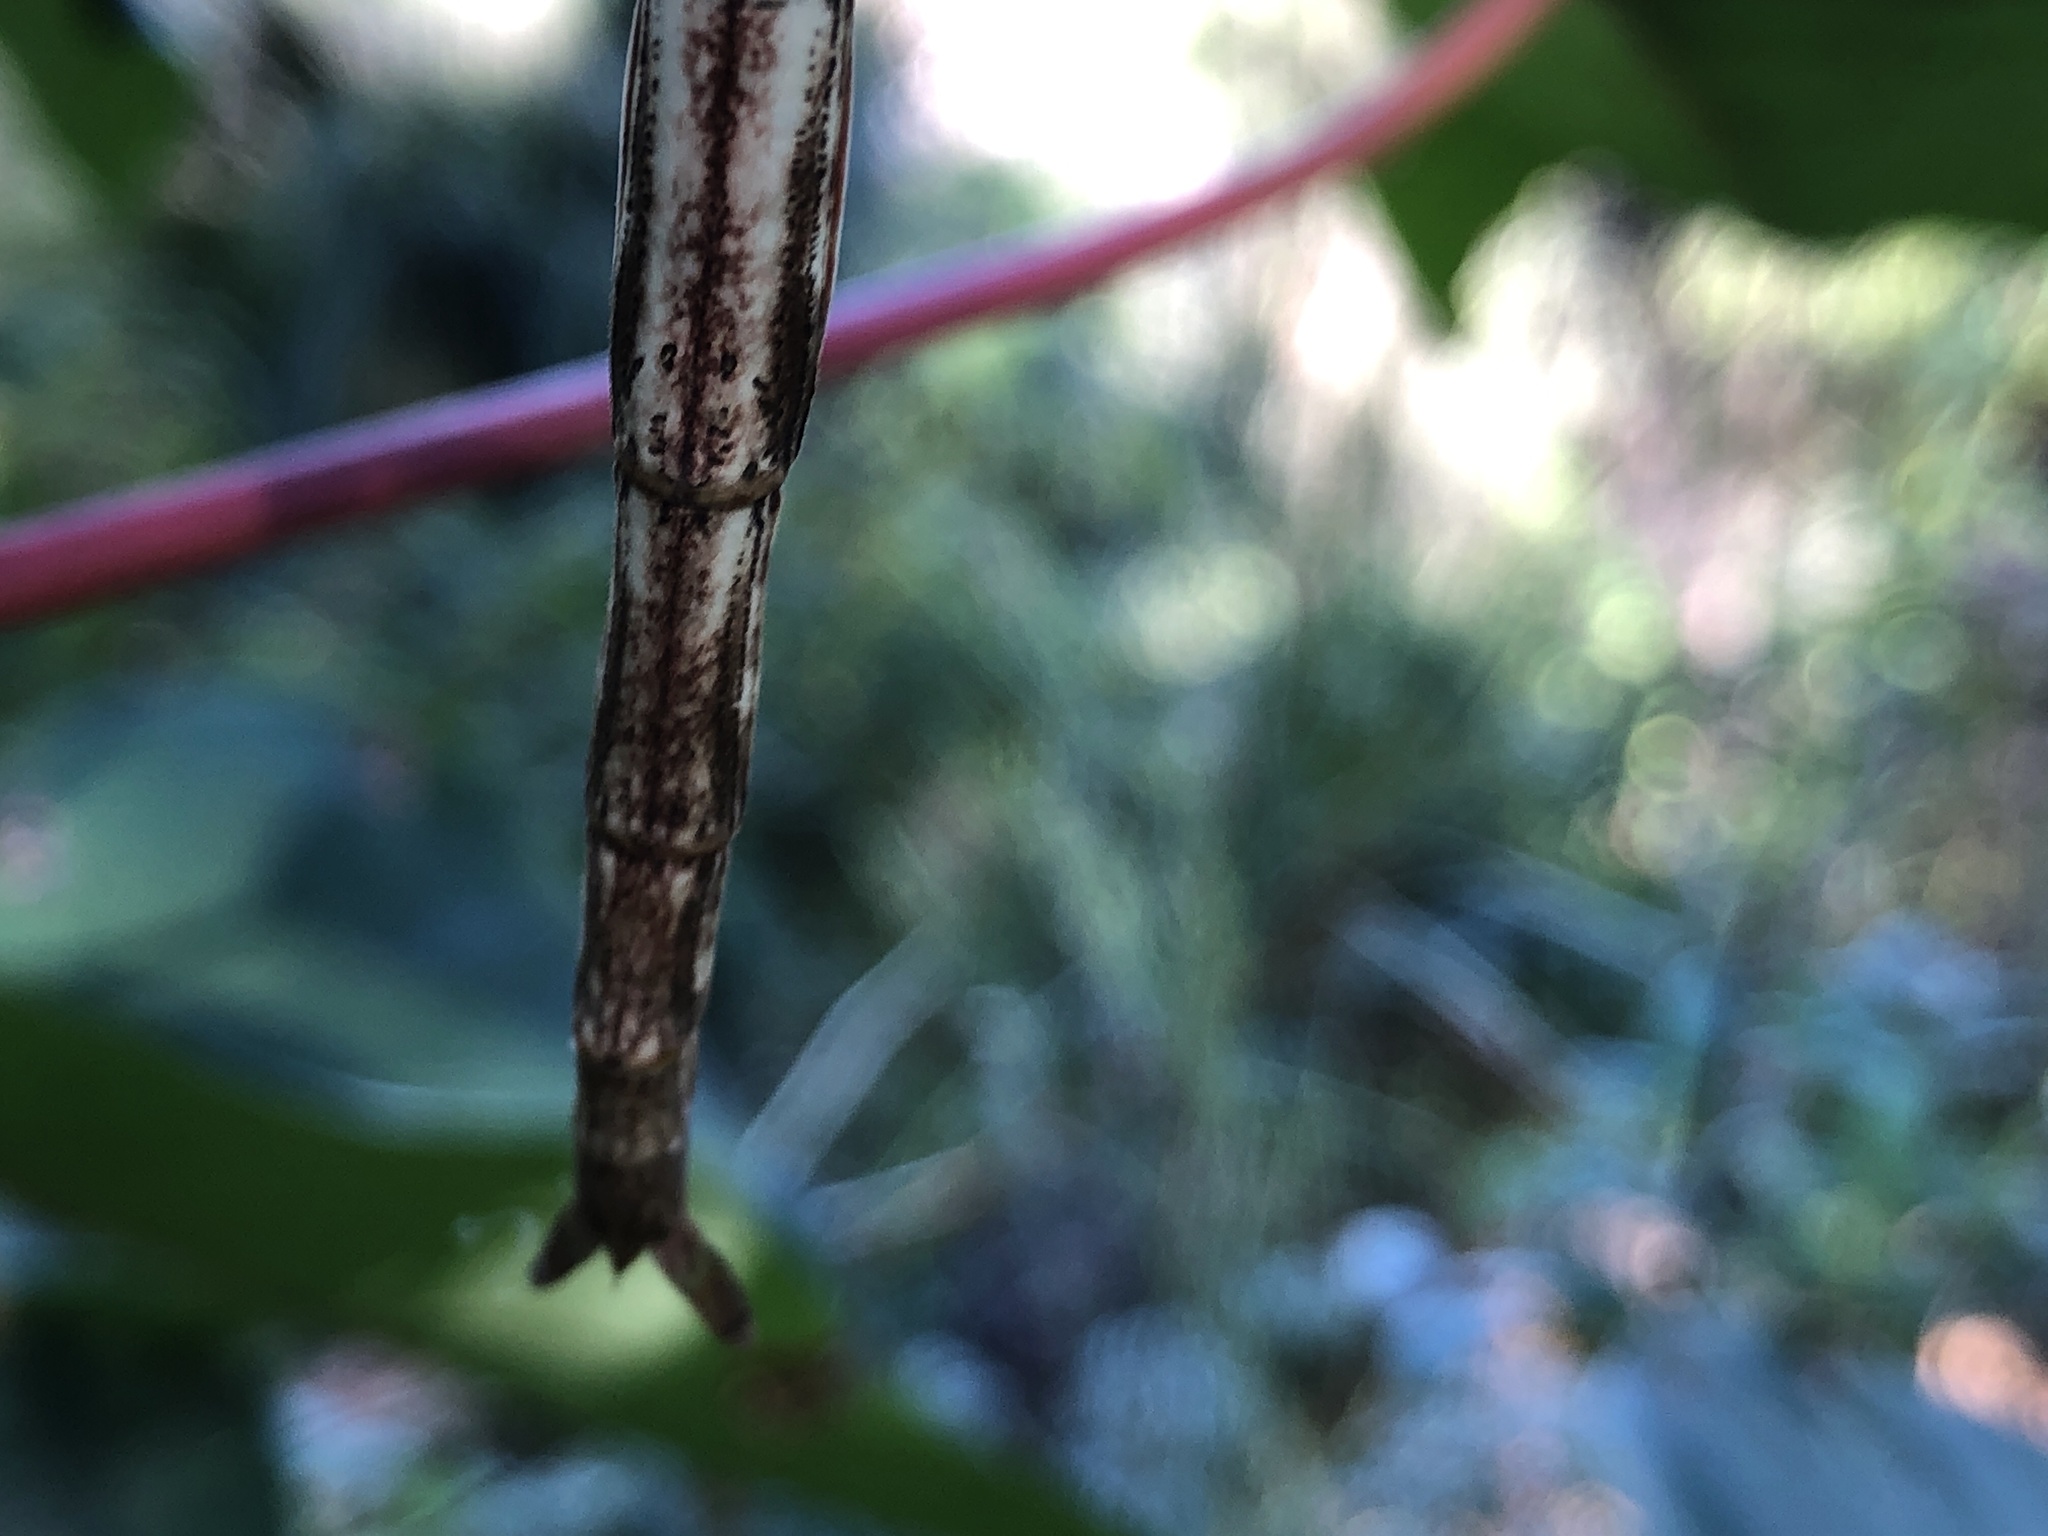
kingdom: Animalia
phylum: Arthropoda
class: Insecta
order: Phasmida
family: Phasmatidae
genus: Anchiale
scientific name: Anchiale austrotessulata
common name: Tessellated stick-insect
